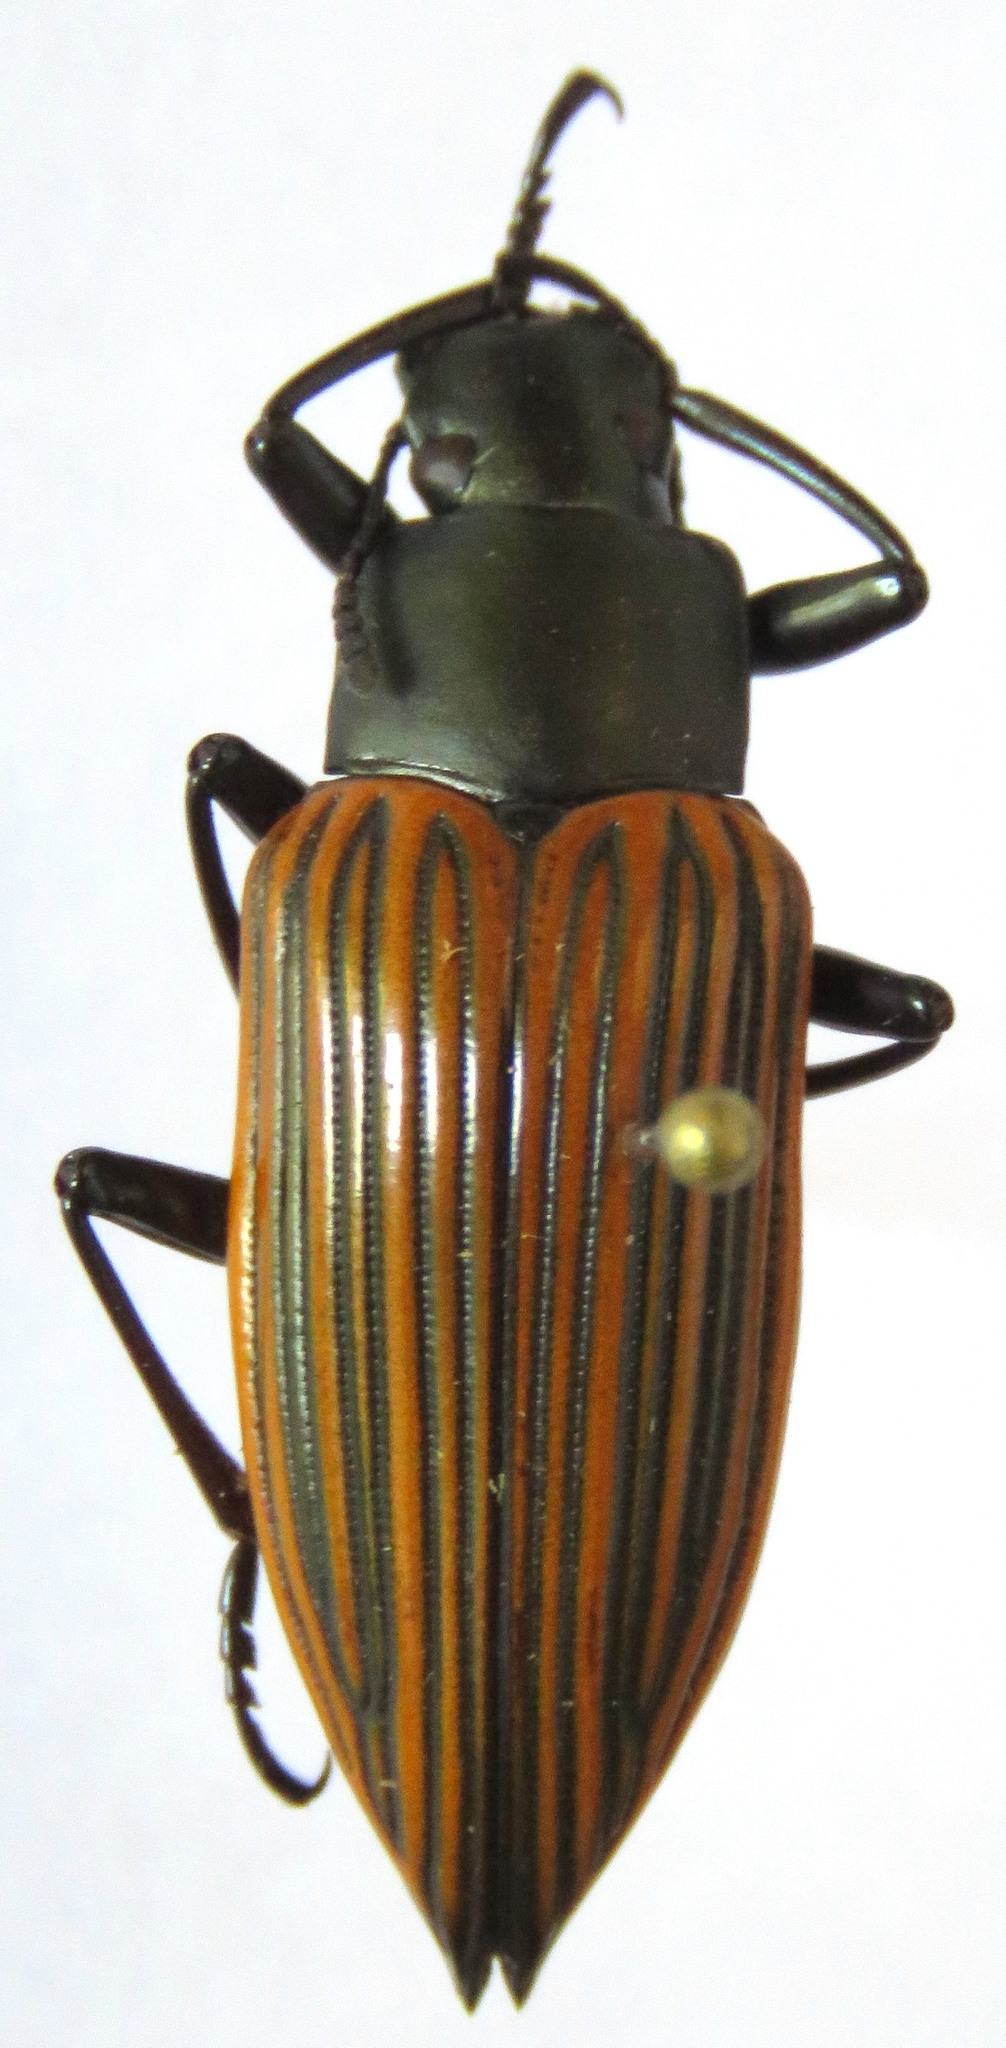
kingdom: Animalia
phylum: Arthropoda
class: Insecta
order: Coleoptera
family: Tenebrionidae
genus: Blapida
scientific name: Blapida alternata
